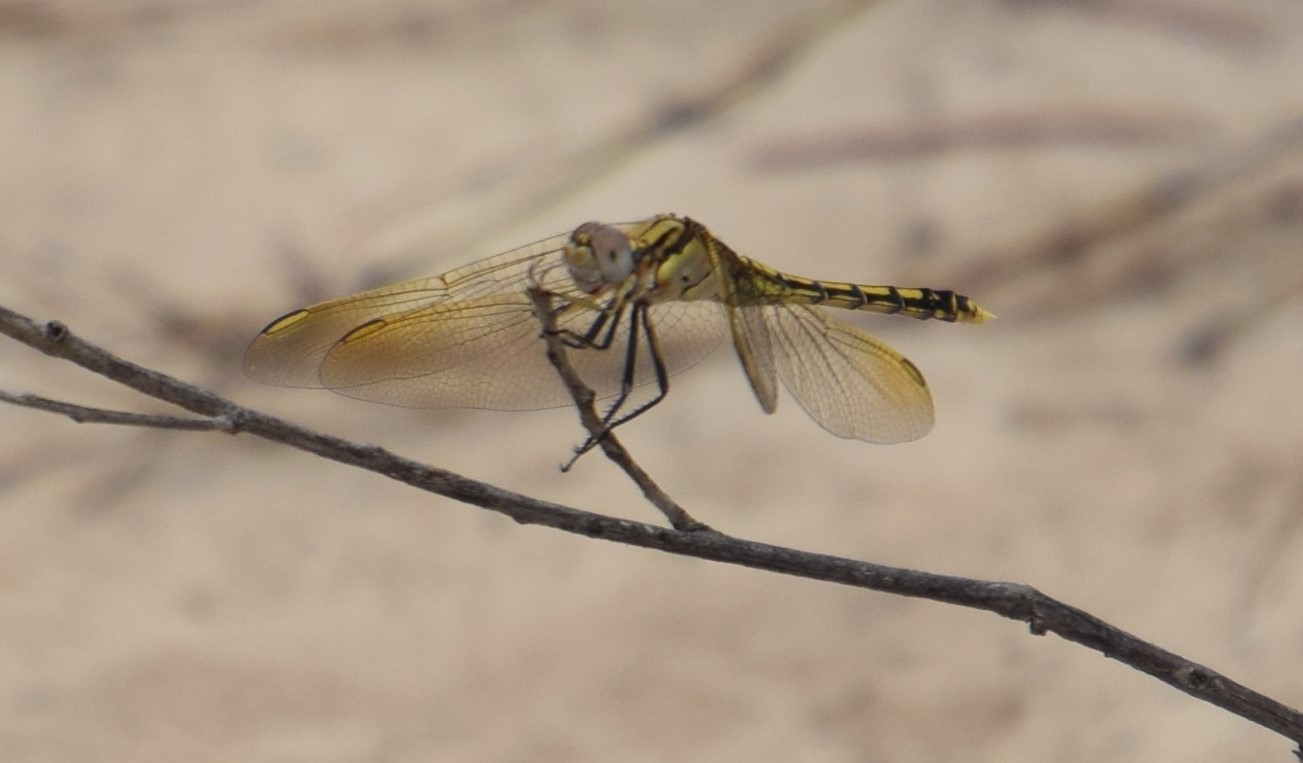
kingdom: Animalia
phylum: Arthropoda
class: Insecta
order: Odonata
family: Libellulidae
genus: Orthetrum
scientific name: Orthetrum caledonicum
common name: Blue skimmer
